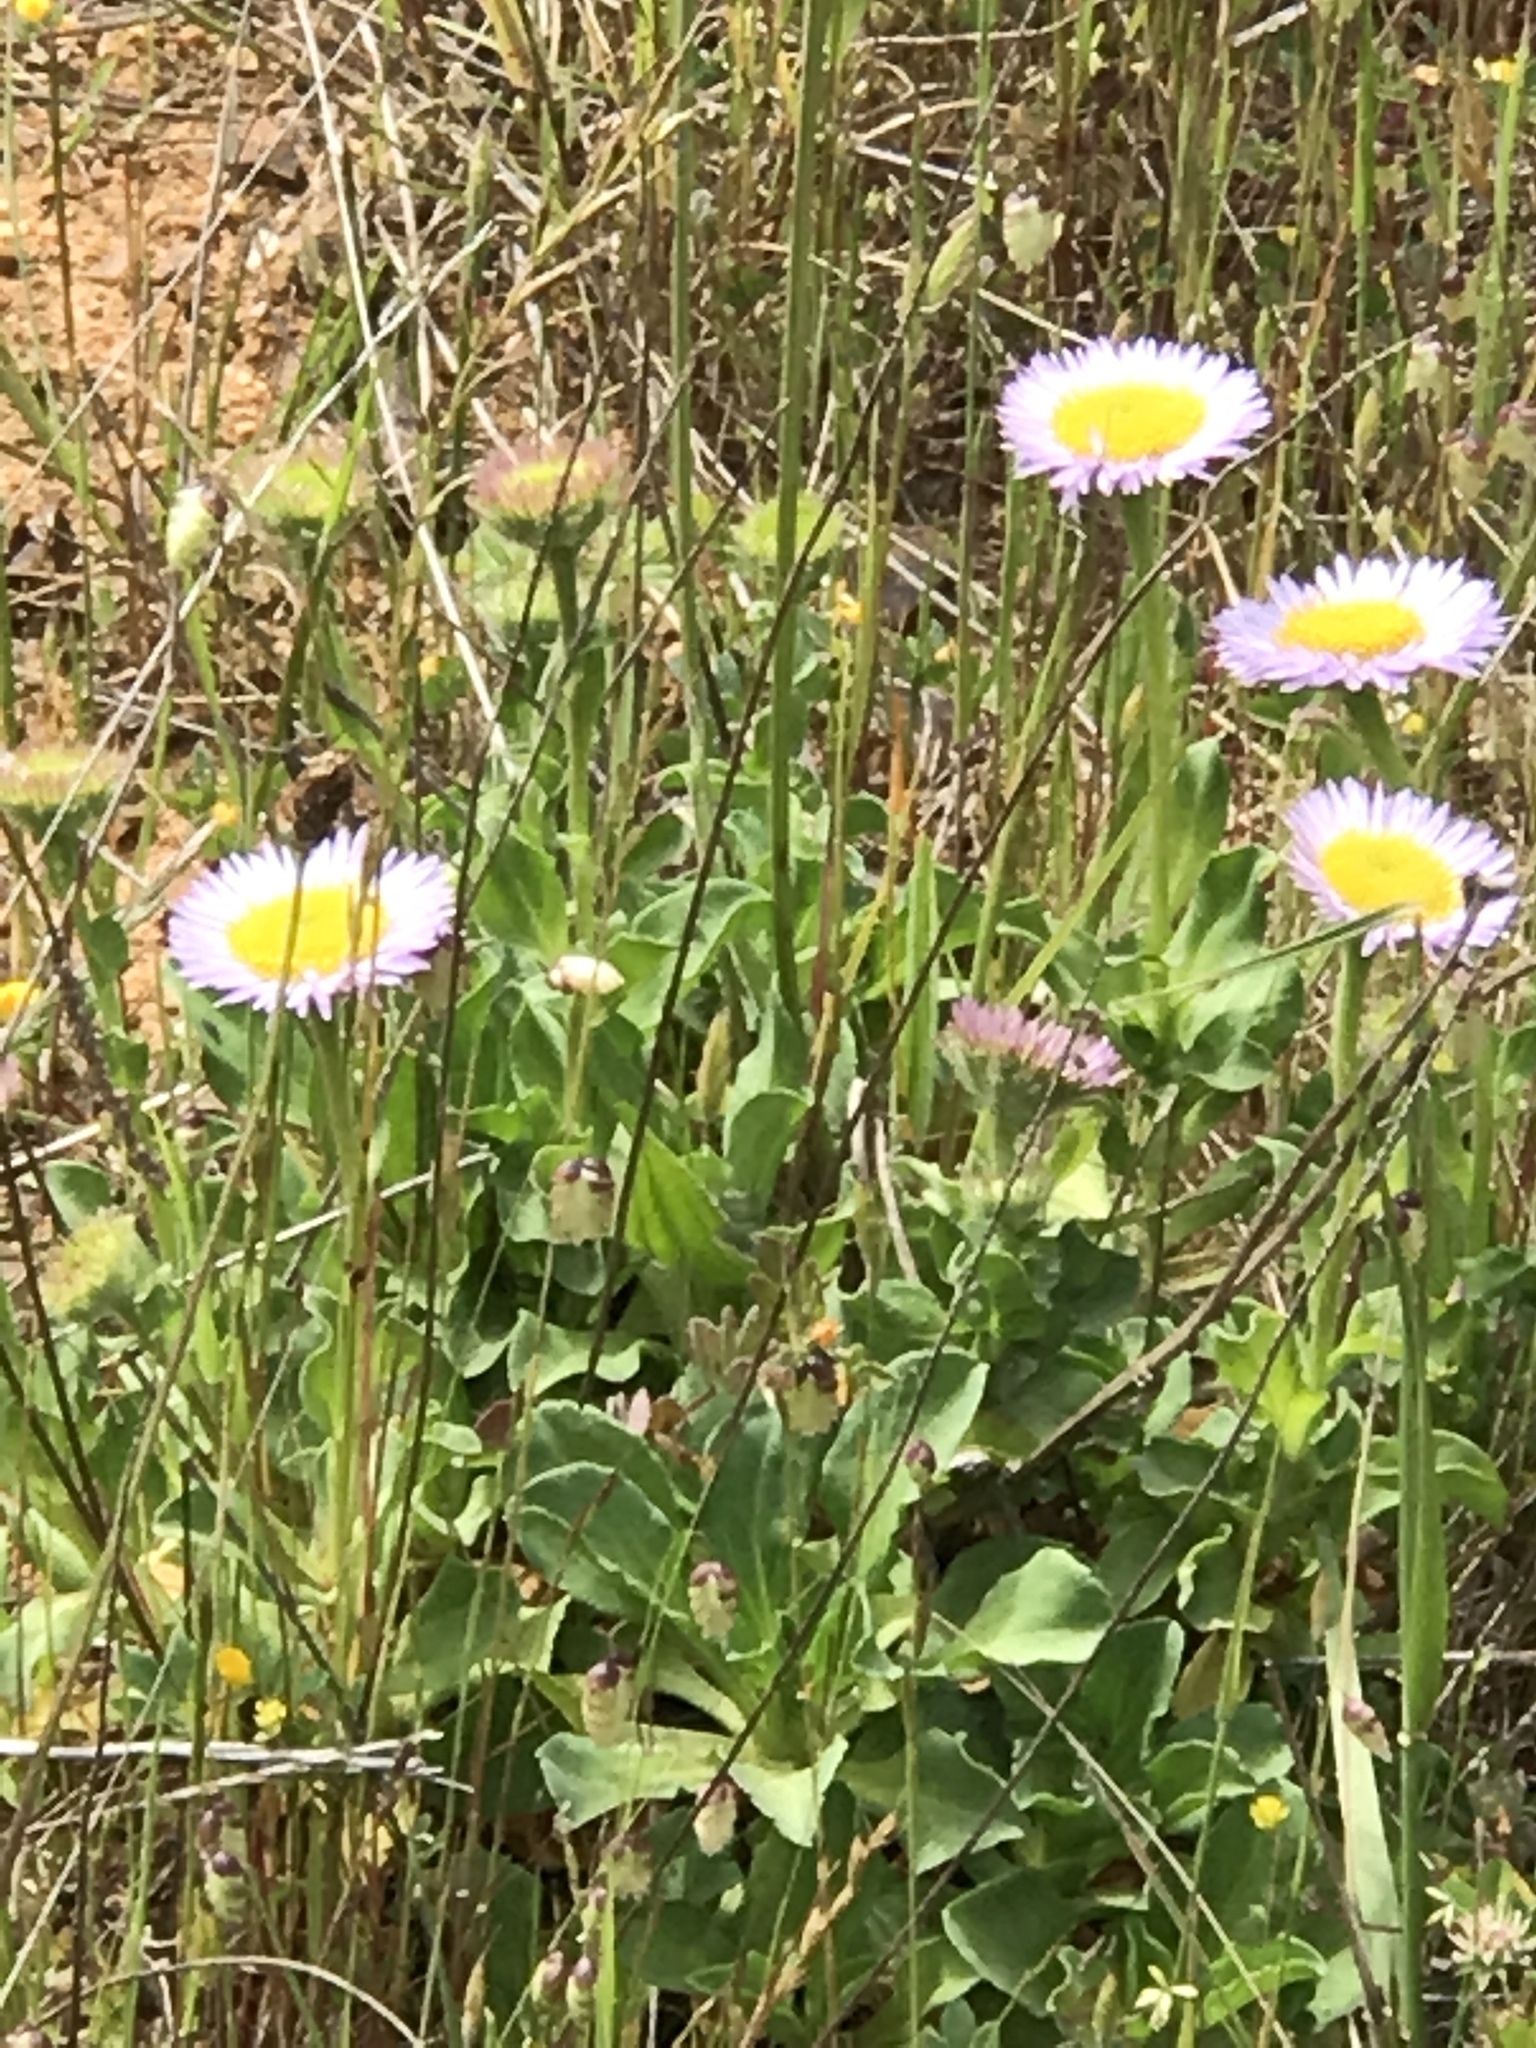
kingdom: Plantae
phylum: Tracheophyta
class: Magnoliopsida
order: Asterales
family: Asteraceae
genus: Erigeron
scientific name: Erigeron glaucus
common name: Seaside daisy
